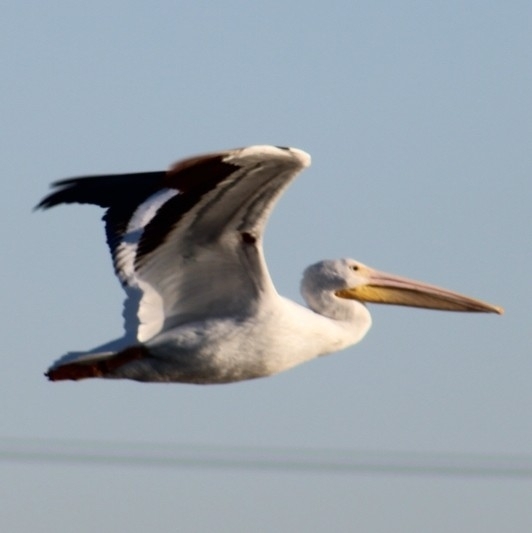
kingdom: Animalia
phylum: Chordata
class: Aves
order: Pelecaniformes
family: Pelecanidae
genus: Pelecanus
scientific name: Pelecanus erythrorhynchos
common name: American white pelican
